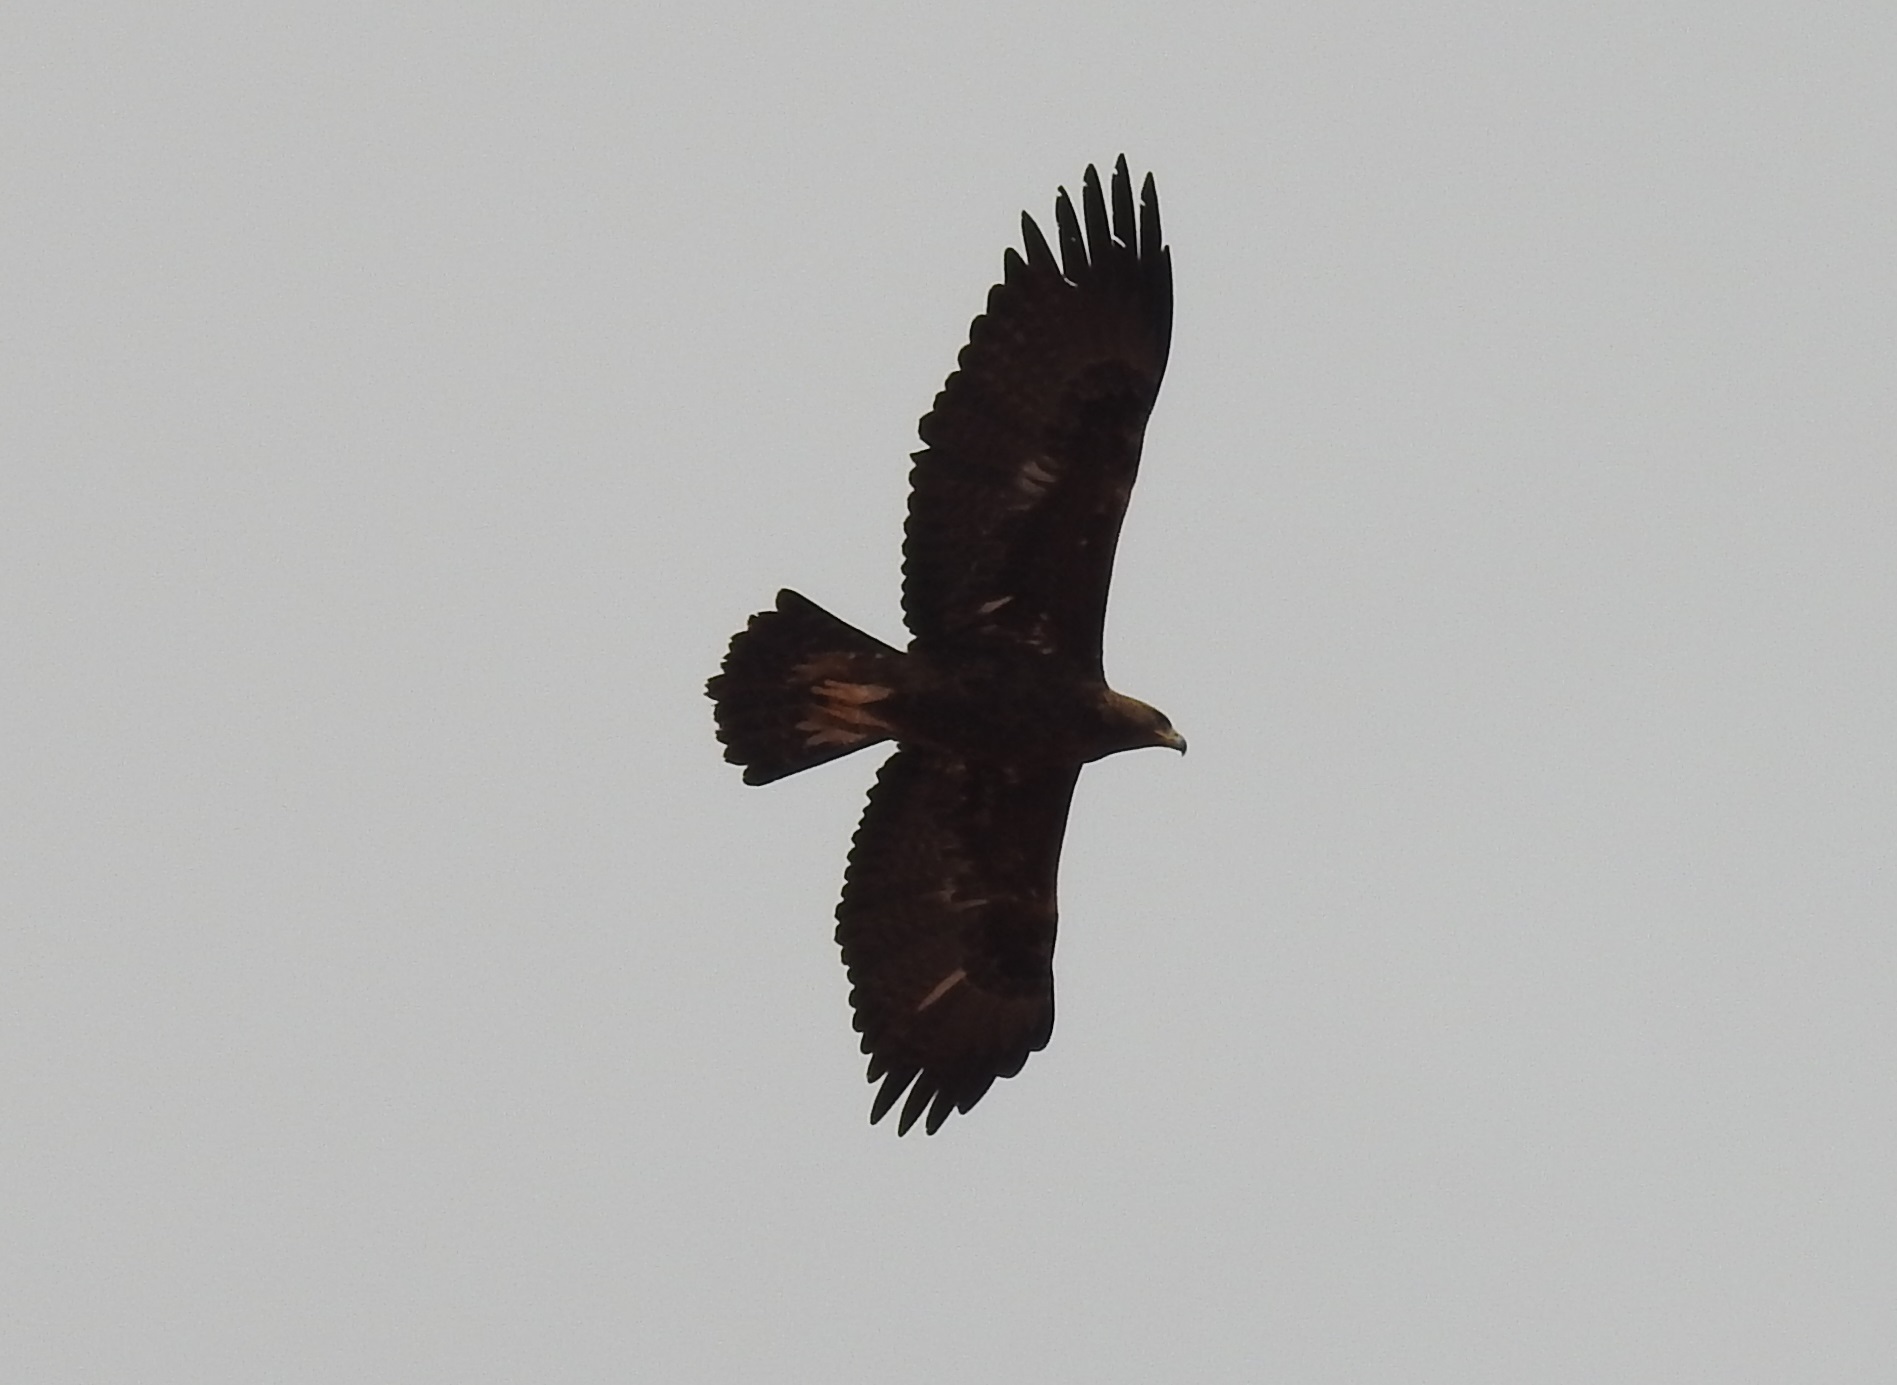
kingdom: Animalia
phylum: Chordata
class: Aves
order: Accipitriformes
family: Accipitridae
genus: Aquila
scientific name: Aquila chrysaetos
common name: Golden eagle
